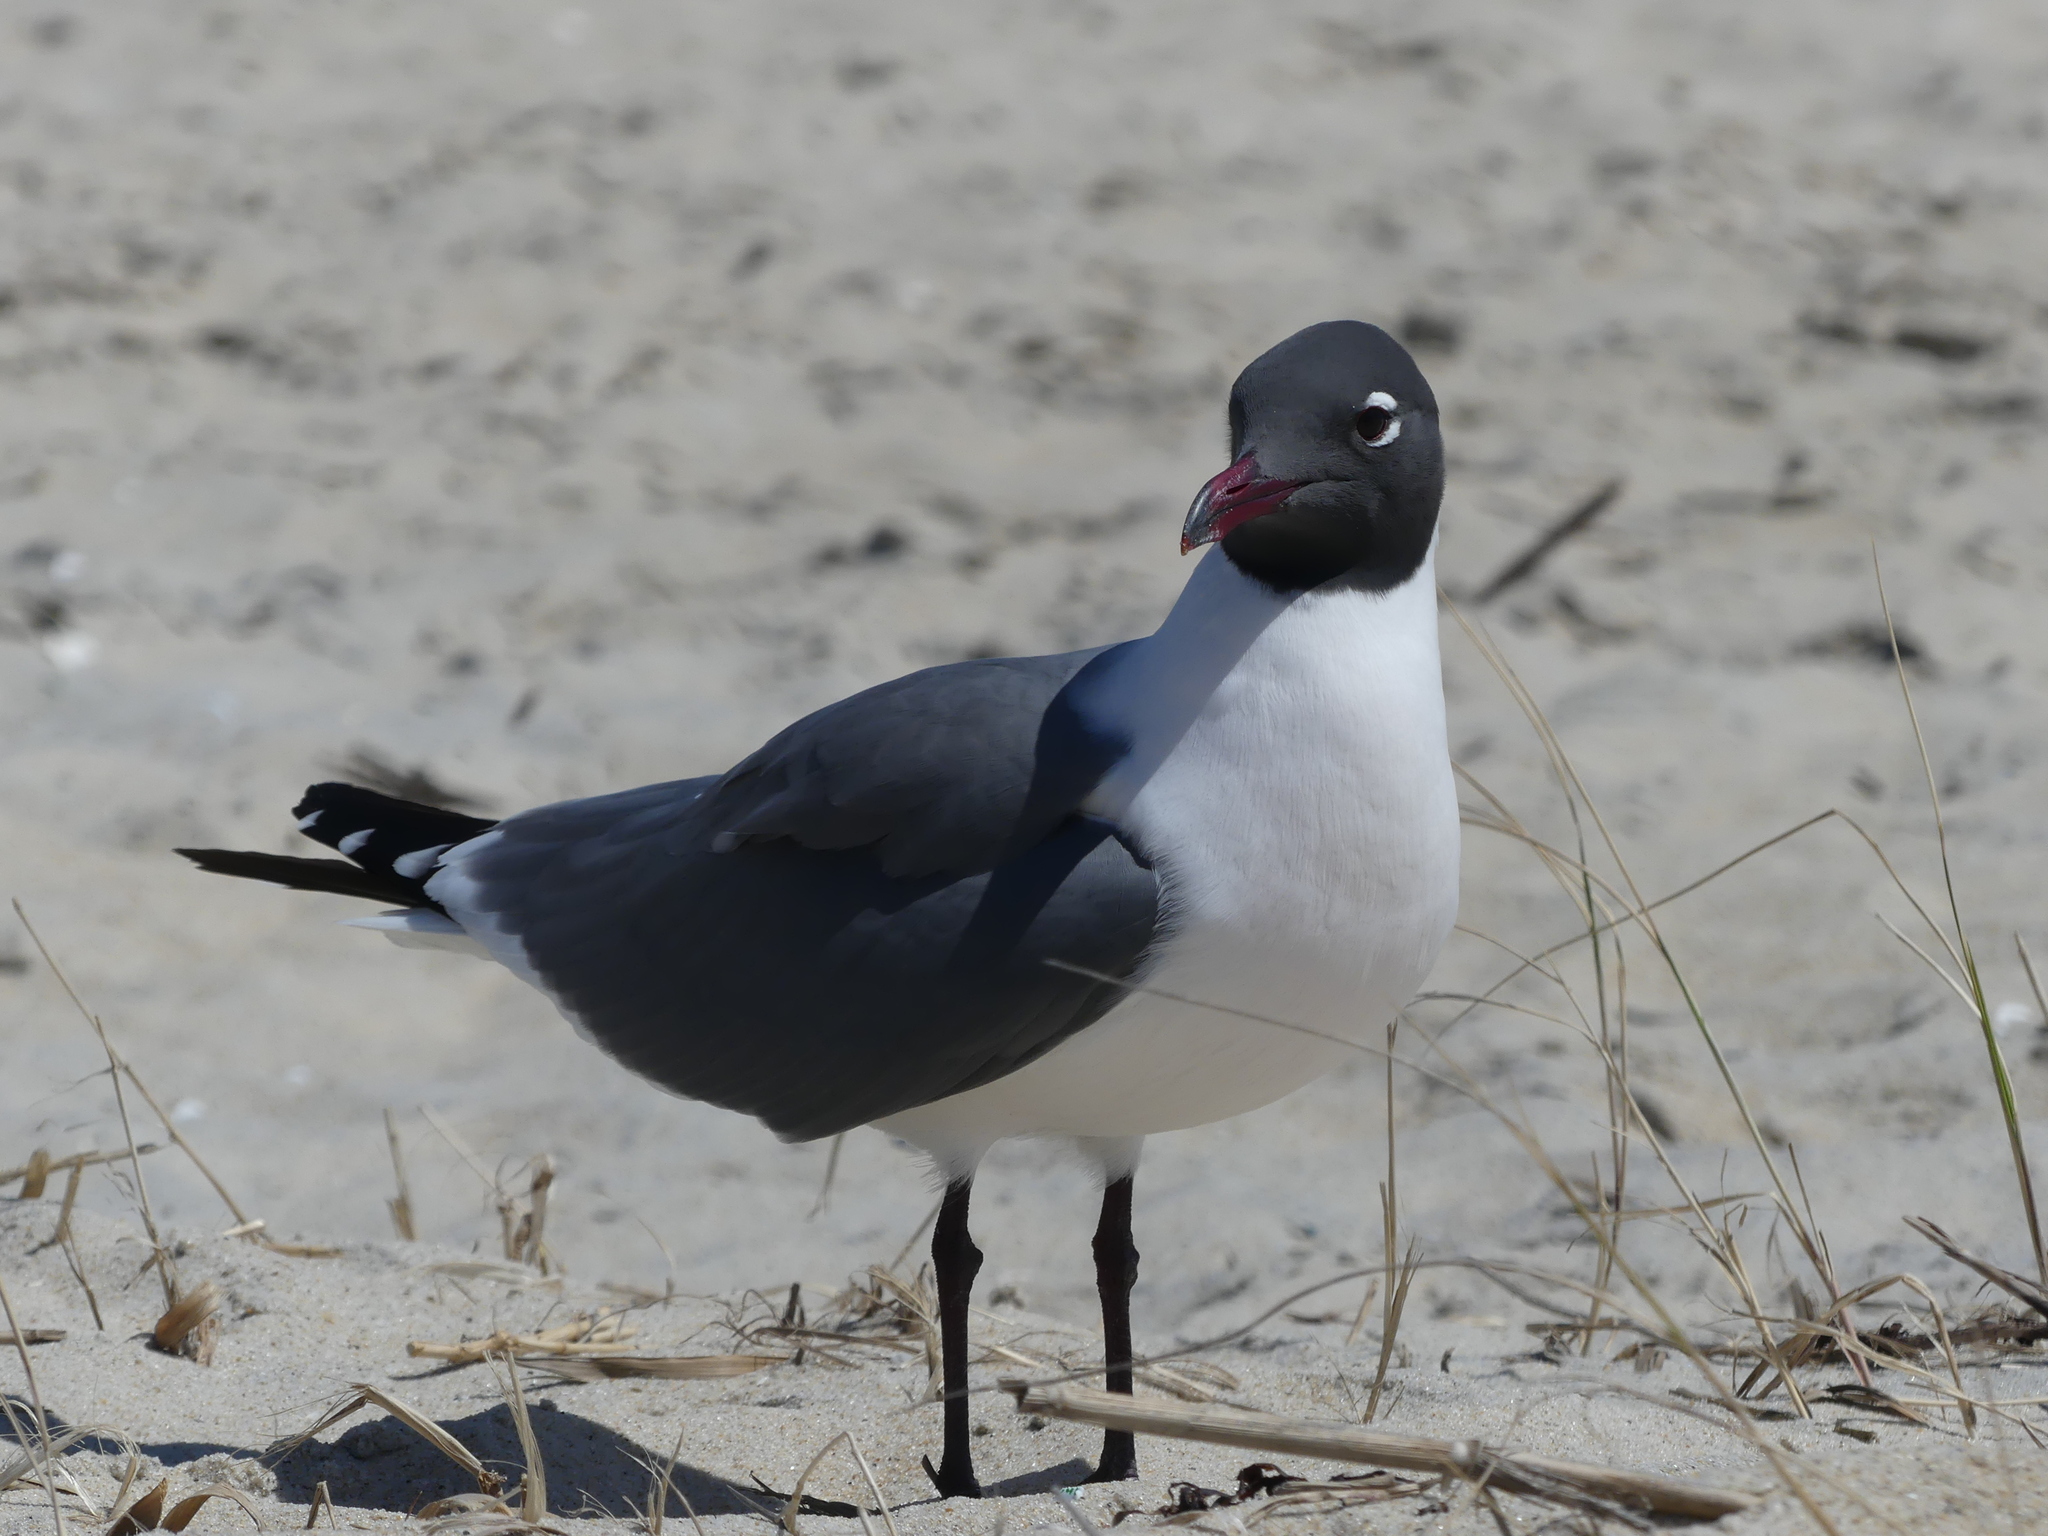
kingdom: Animalia
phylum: Chordata
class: Aves
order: Charadriiformes
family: Laridae
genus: Leucophaeus
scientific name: Leucophaeus atricilla
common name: Laughing gull
